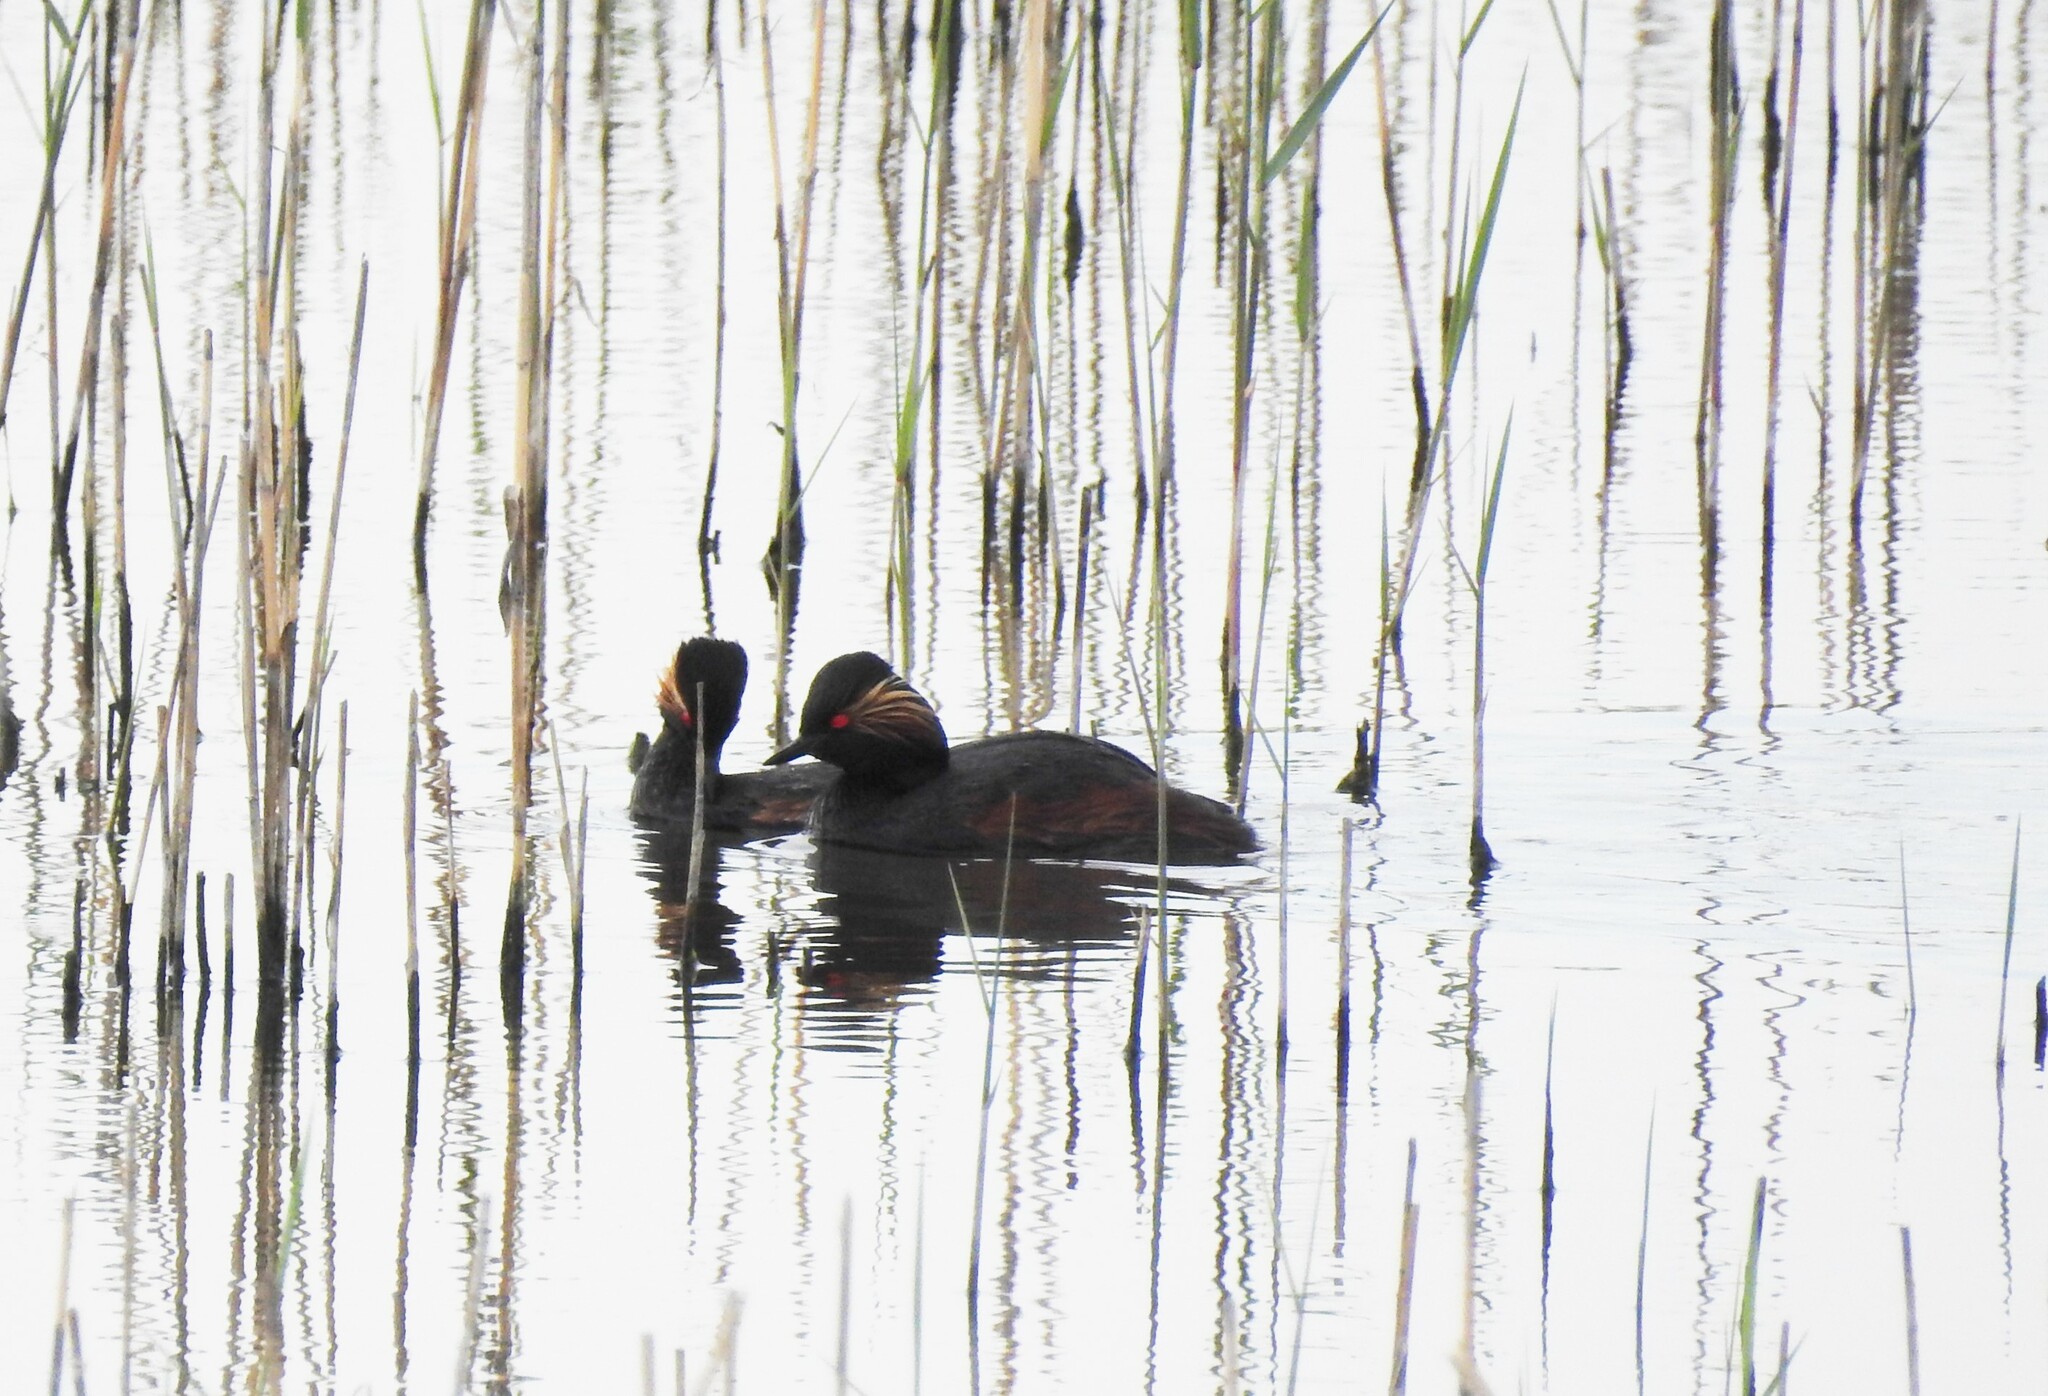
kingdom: Animalia
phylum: Chordata
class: Aves
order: Podicipediformes
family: Podicipedidae
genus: Podiceps
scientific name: Podiceps nigricollis
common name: Black-necked grebe
